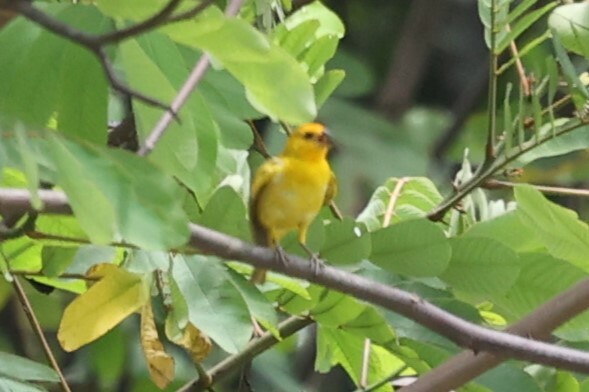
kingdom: Animalia
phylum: Chordata
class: Aves
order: Passeriformes
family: Thraupidae
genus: Sicalis
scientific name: Sicalis flaveola
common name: Saffron finch
